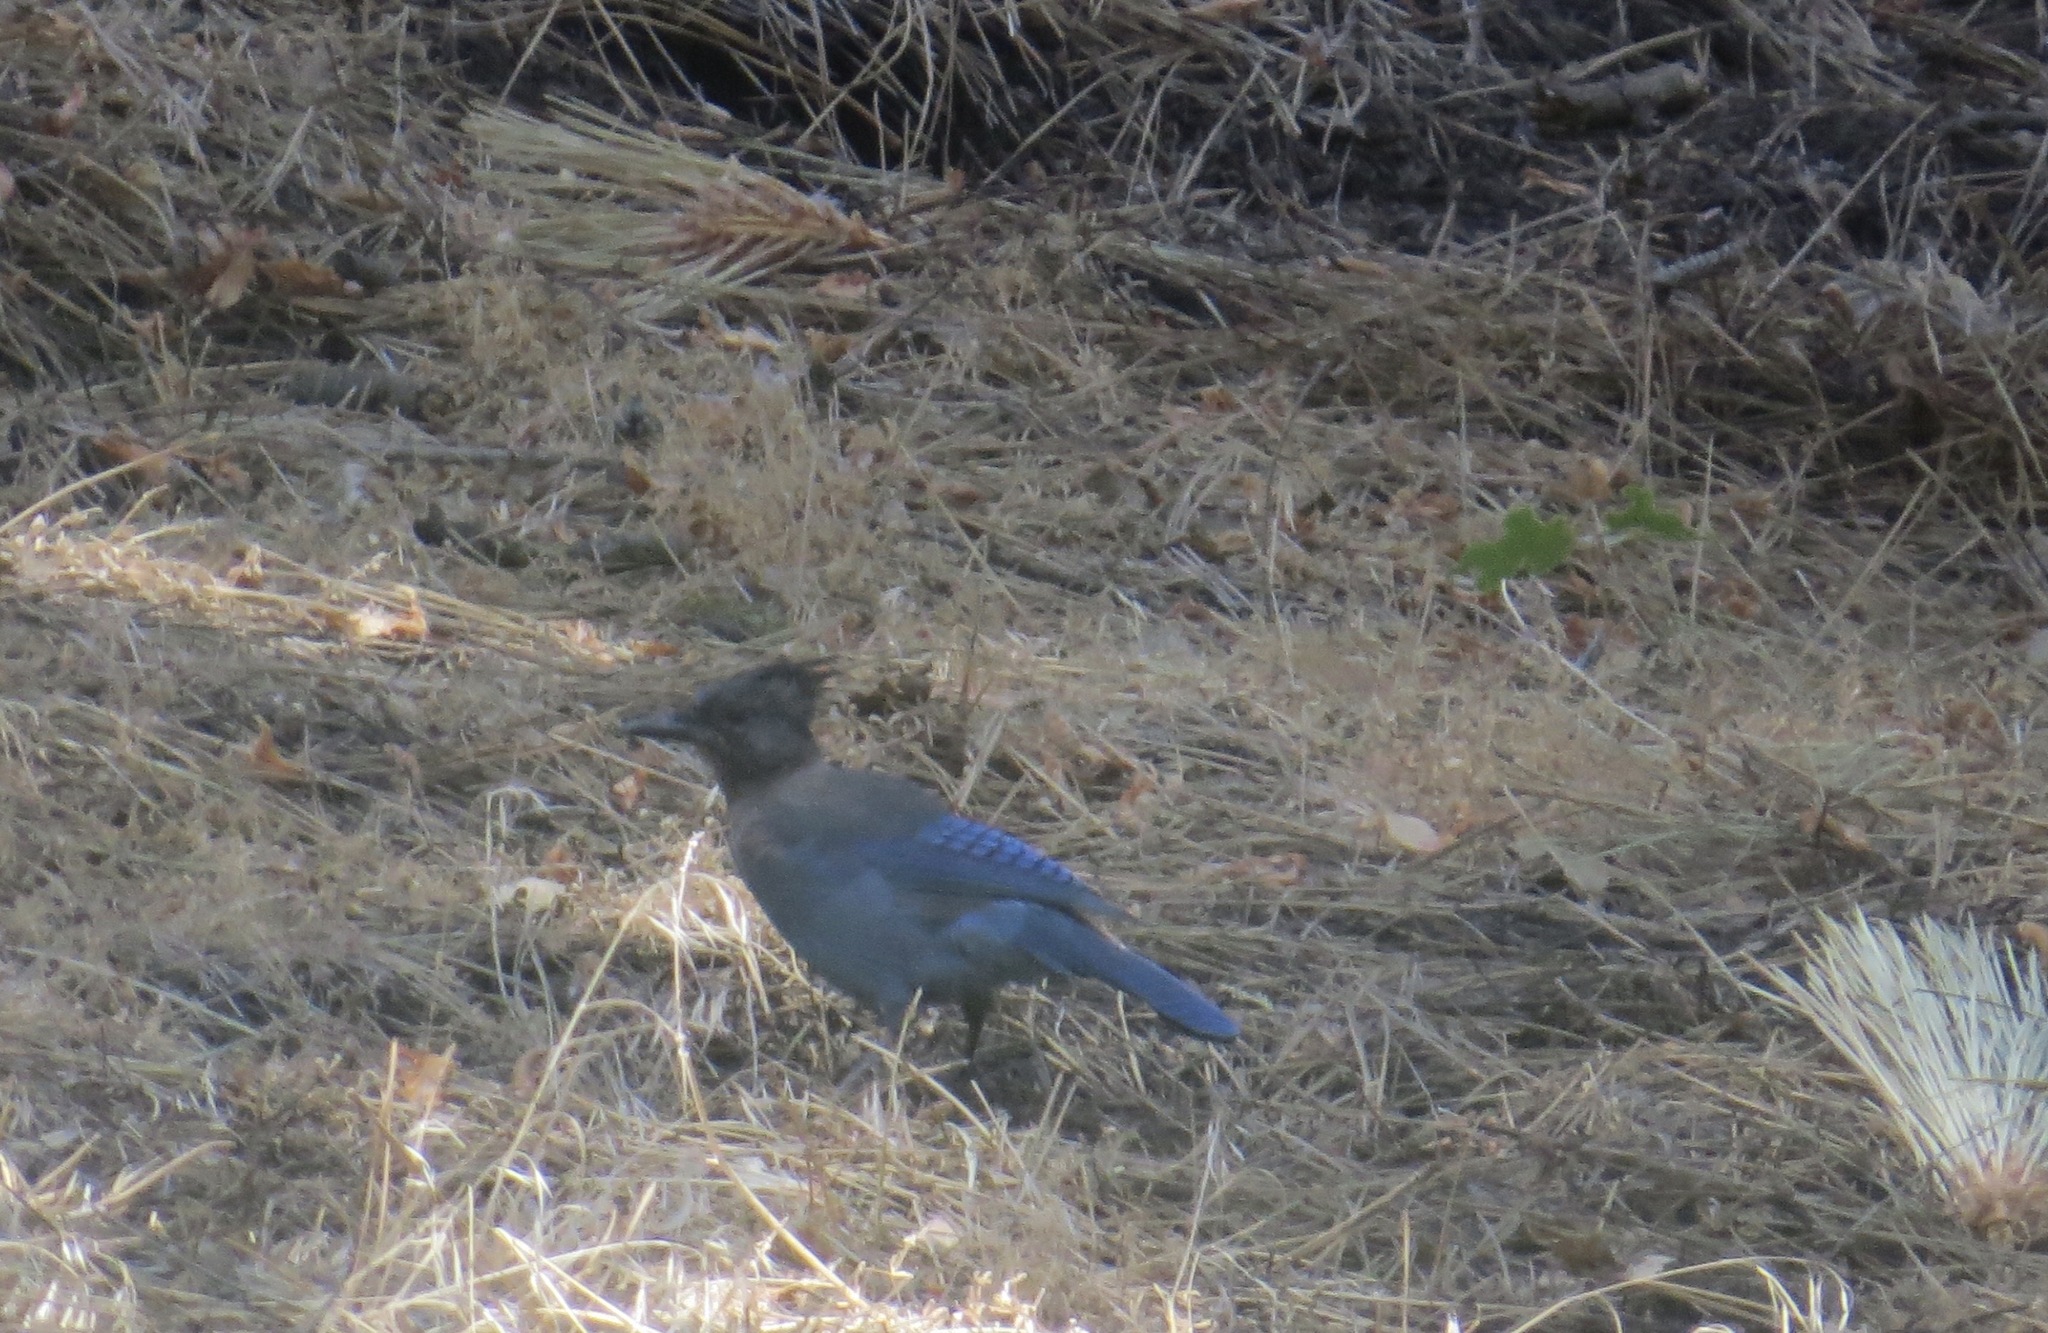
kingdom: Animalia
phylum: Chordata
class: Aves
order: Passeriformes
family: Corvidae
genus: Cyanocitta
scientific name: Cyanocitta stelleri
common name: Steller's jay
